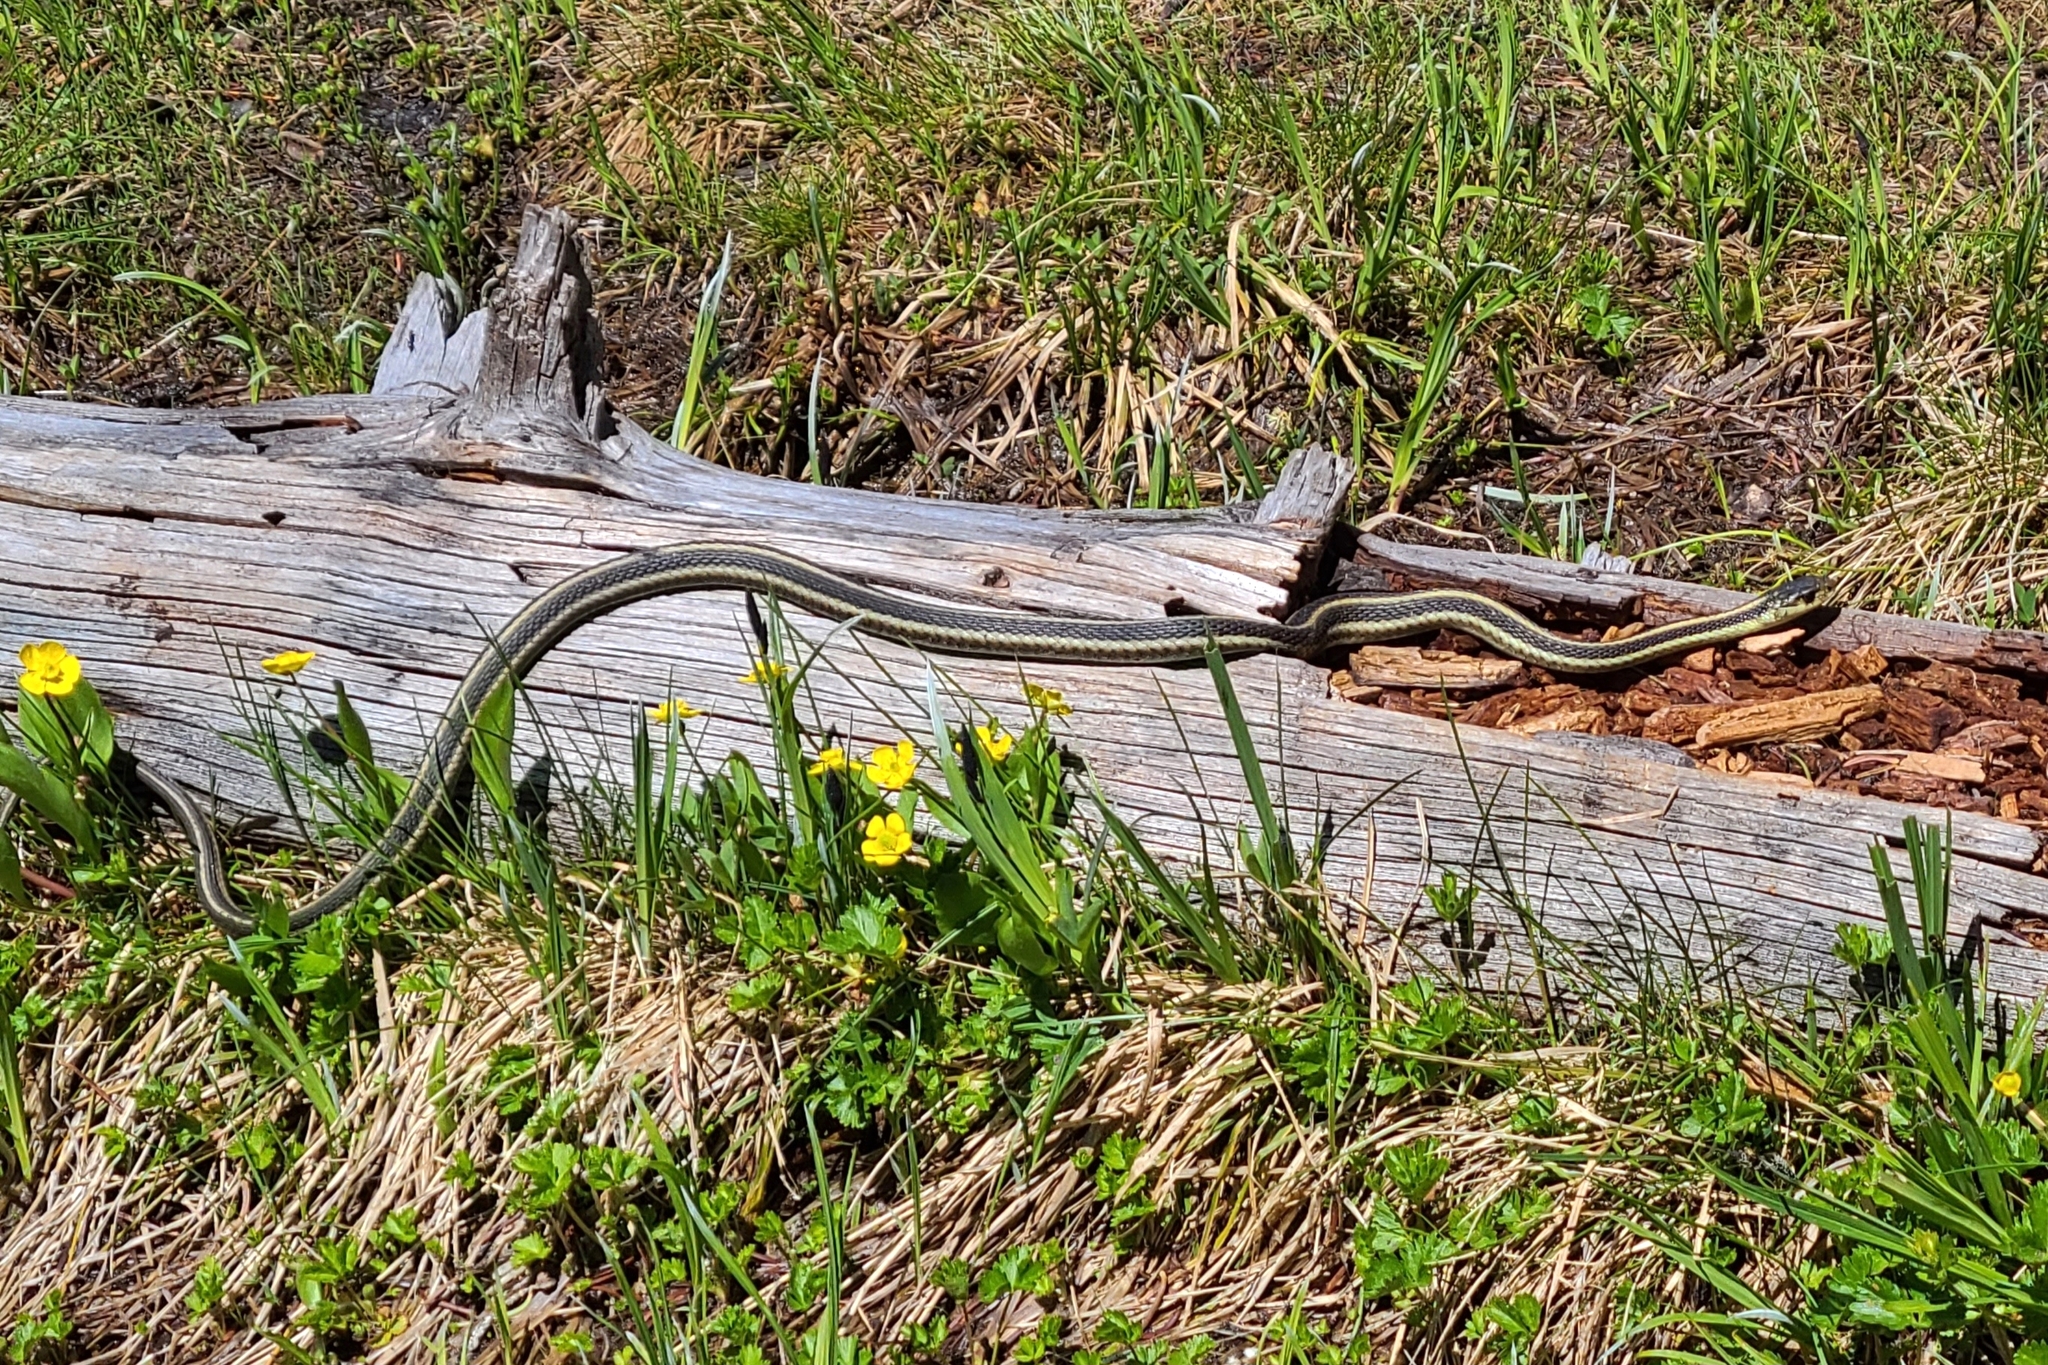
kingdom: Animalia
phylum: Chordata
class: Squamata
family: Colubridae
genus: Thamnophis
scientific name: Thamnophis sirtalis
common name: Common garter snake
